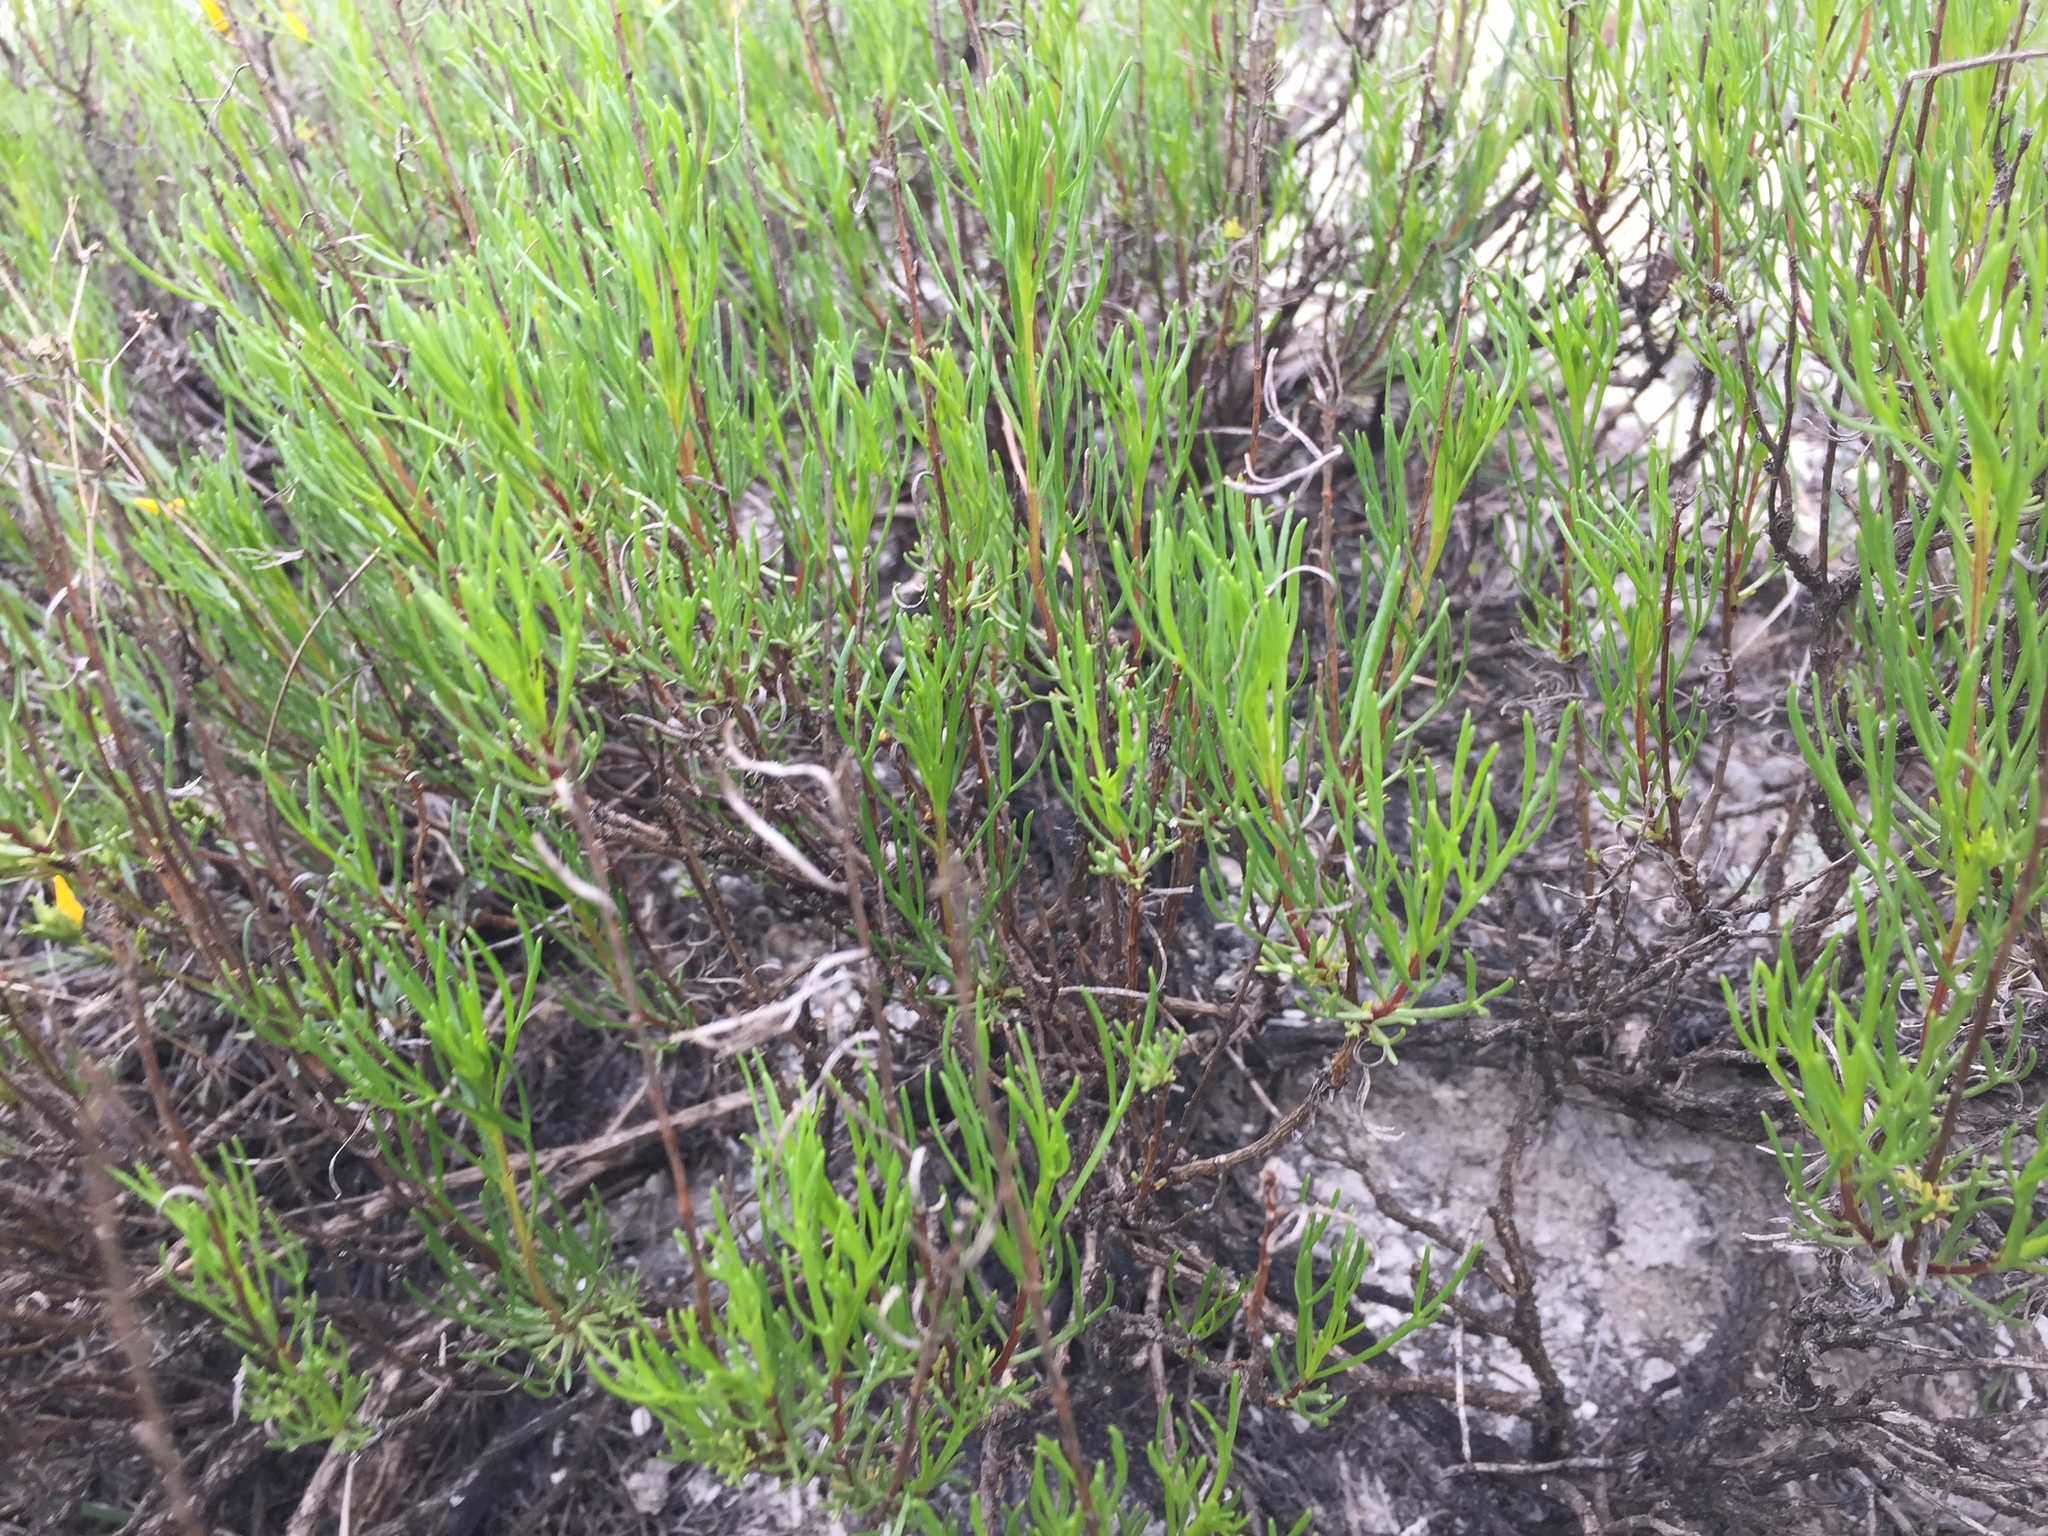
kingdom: Plantae
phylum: Tracheophyta
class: Magnoliopsida
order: Asterales
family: Asteraceae
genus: Artemisia
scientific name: Artemisia salsoloides
